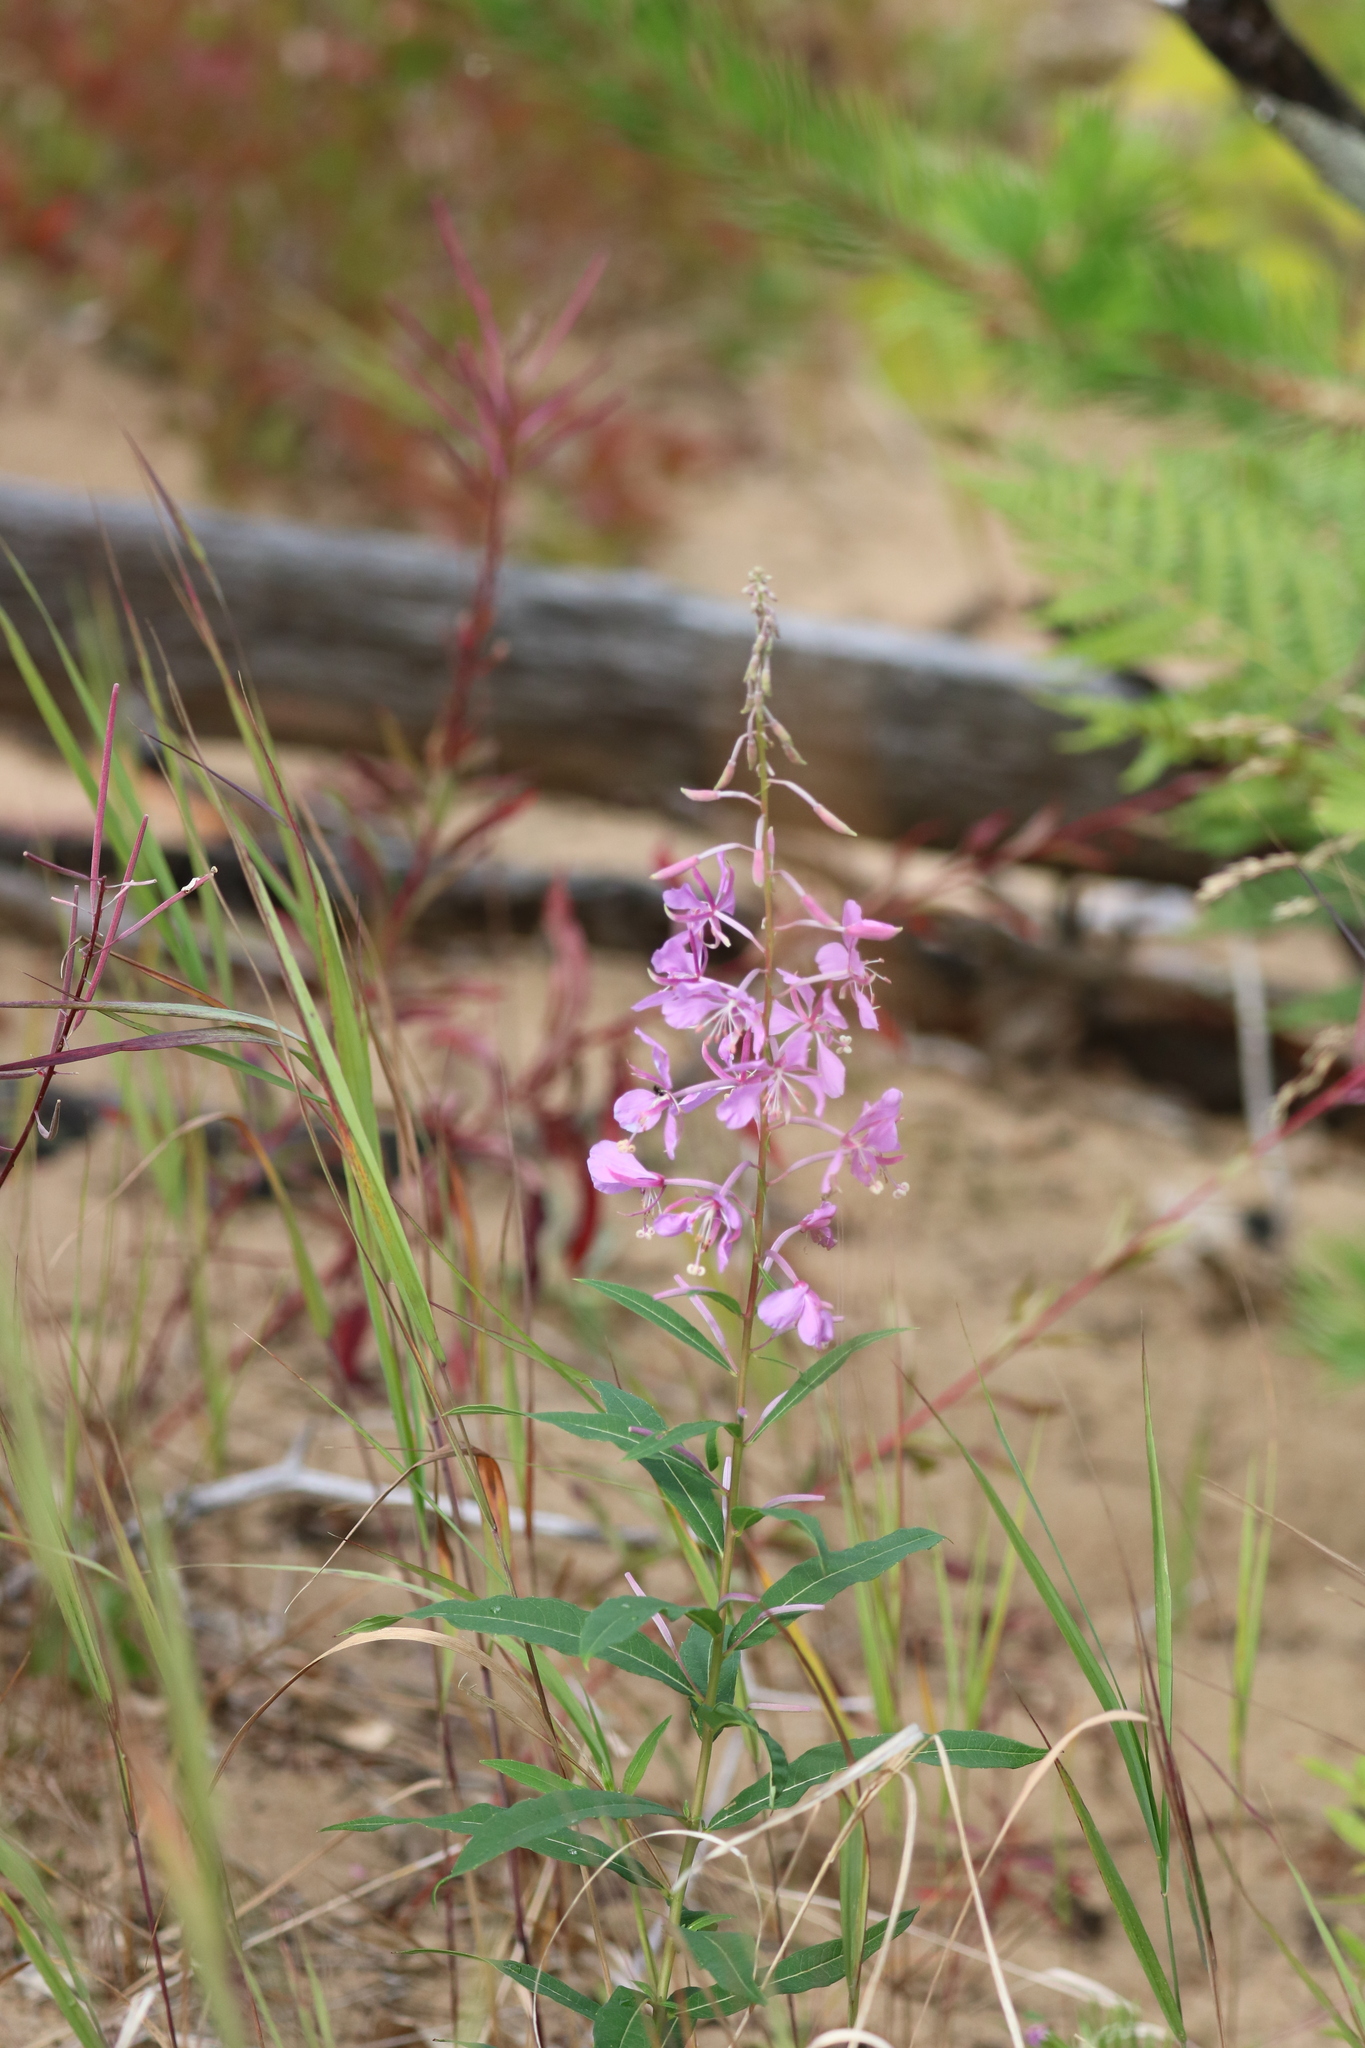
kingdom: Plantae
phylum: Tracheophyta
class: Magnoliopsida
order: Myrtales
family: Onagraceae
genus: Chamaenerion
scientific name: Chamaenerion angustifolium
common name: Fireweed
